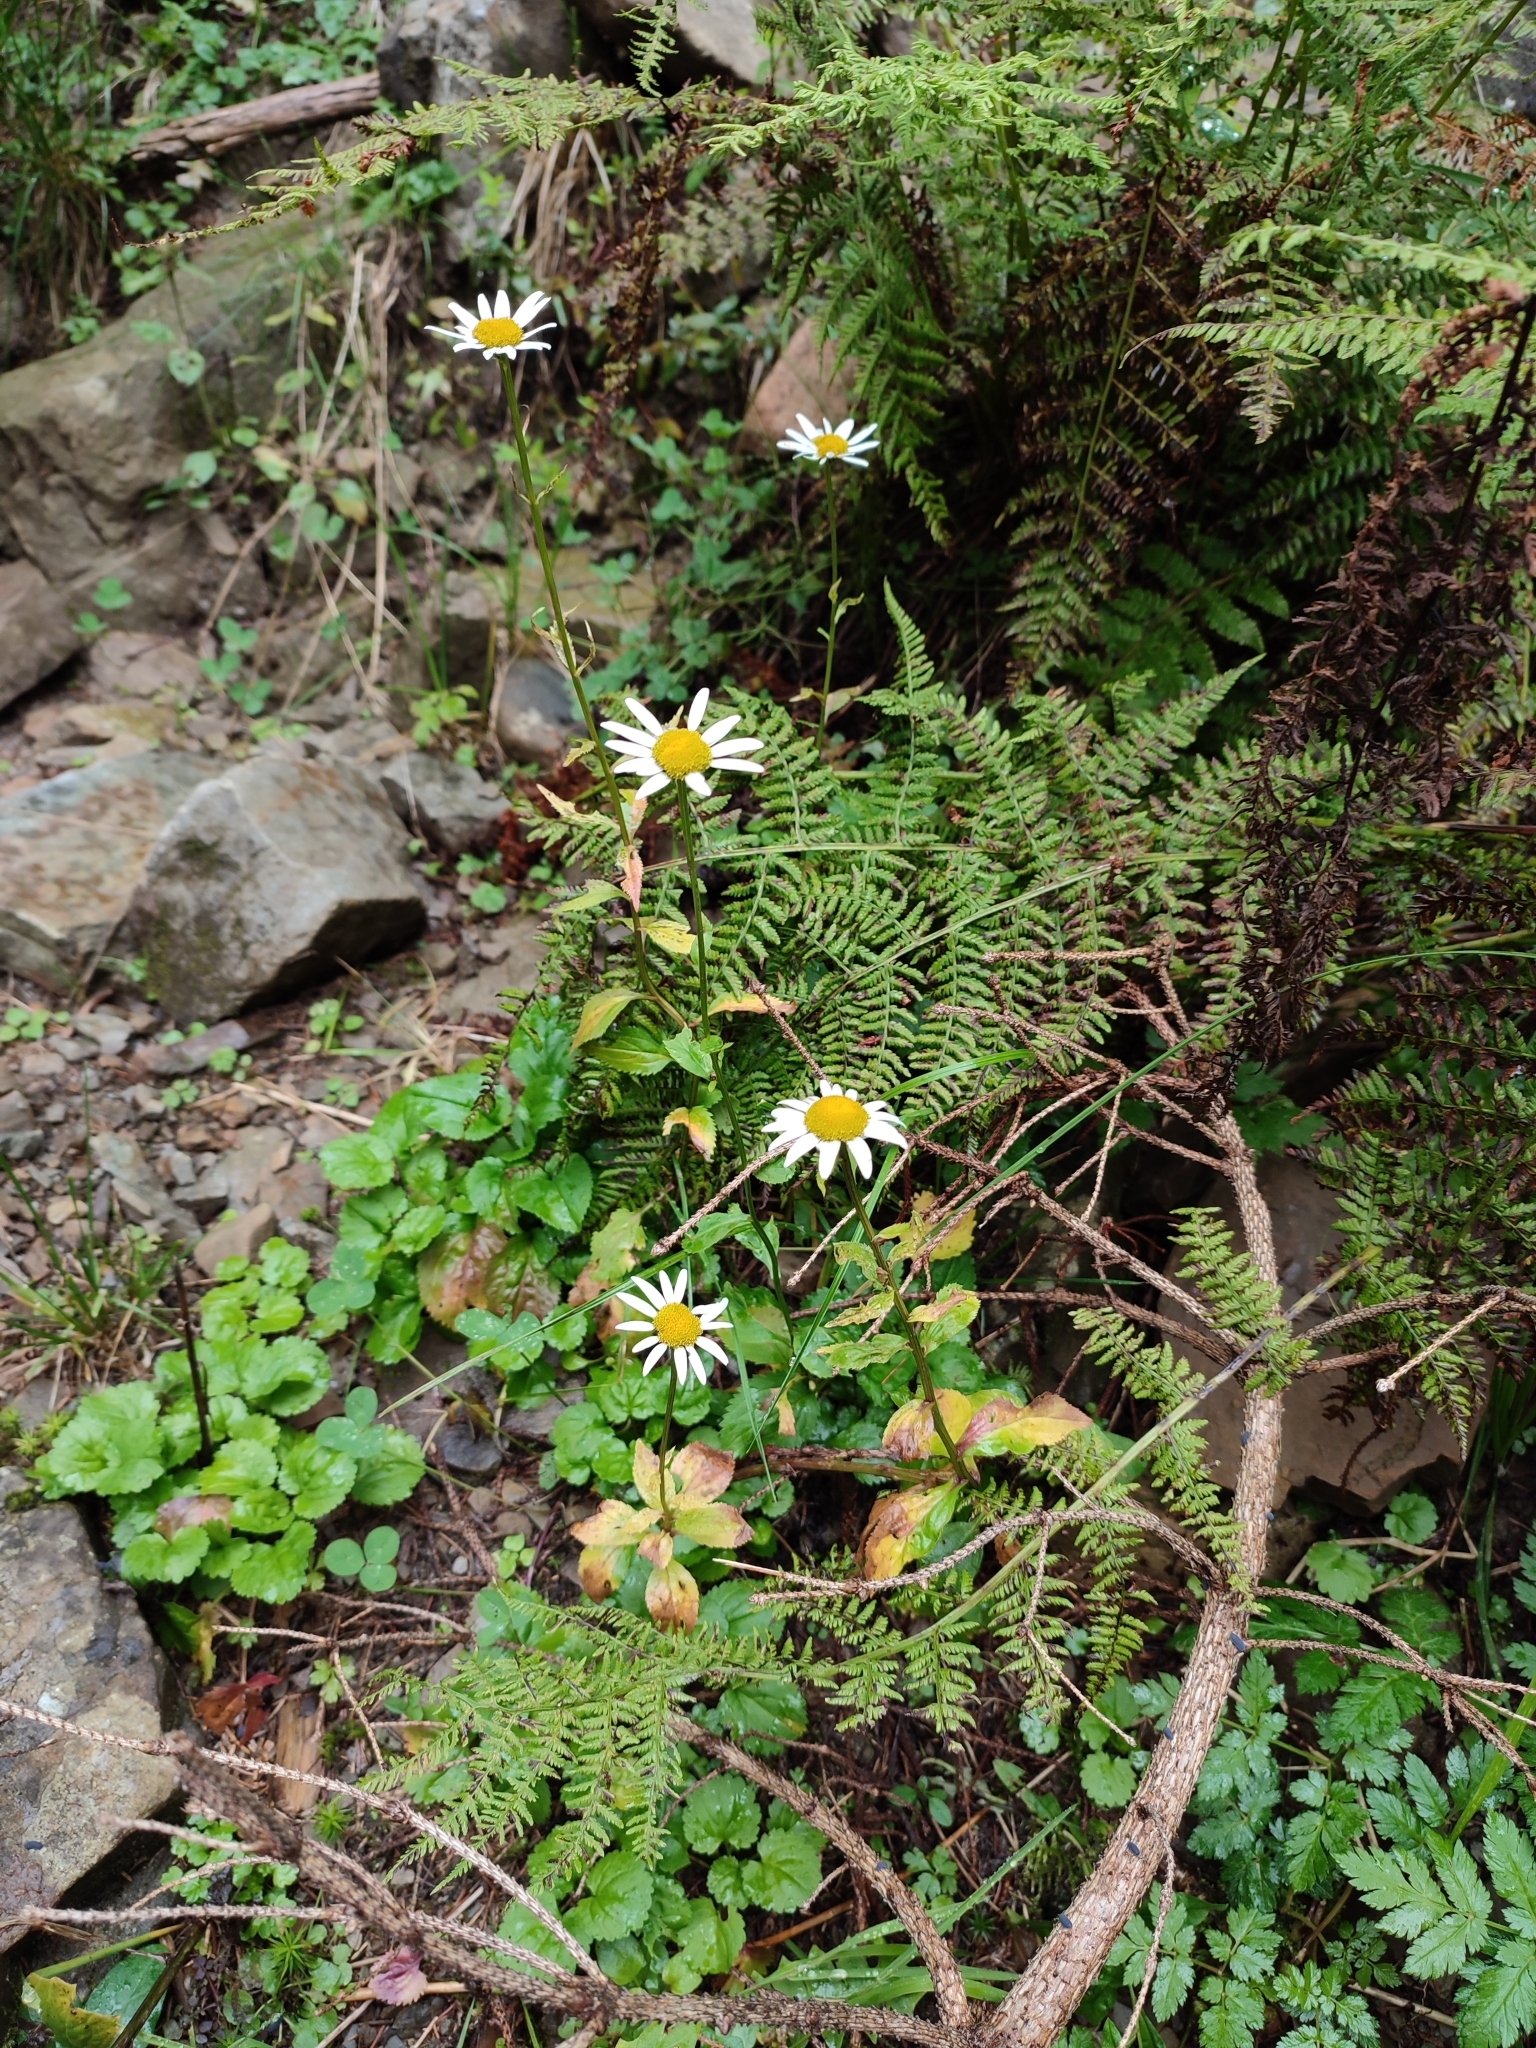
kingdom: Plantae
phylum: Tracheophyta
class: Magnoliopsida
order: Asterales
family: Asteraceae
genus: Leucanthemum
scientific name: Leucanthemum rotundifolium
